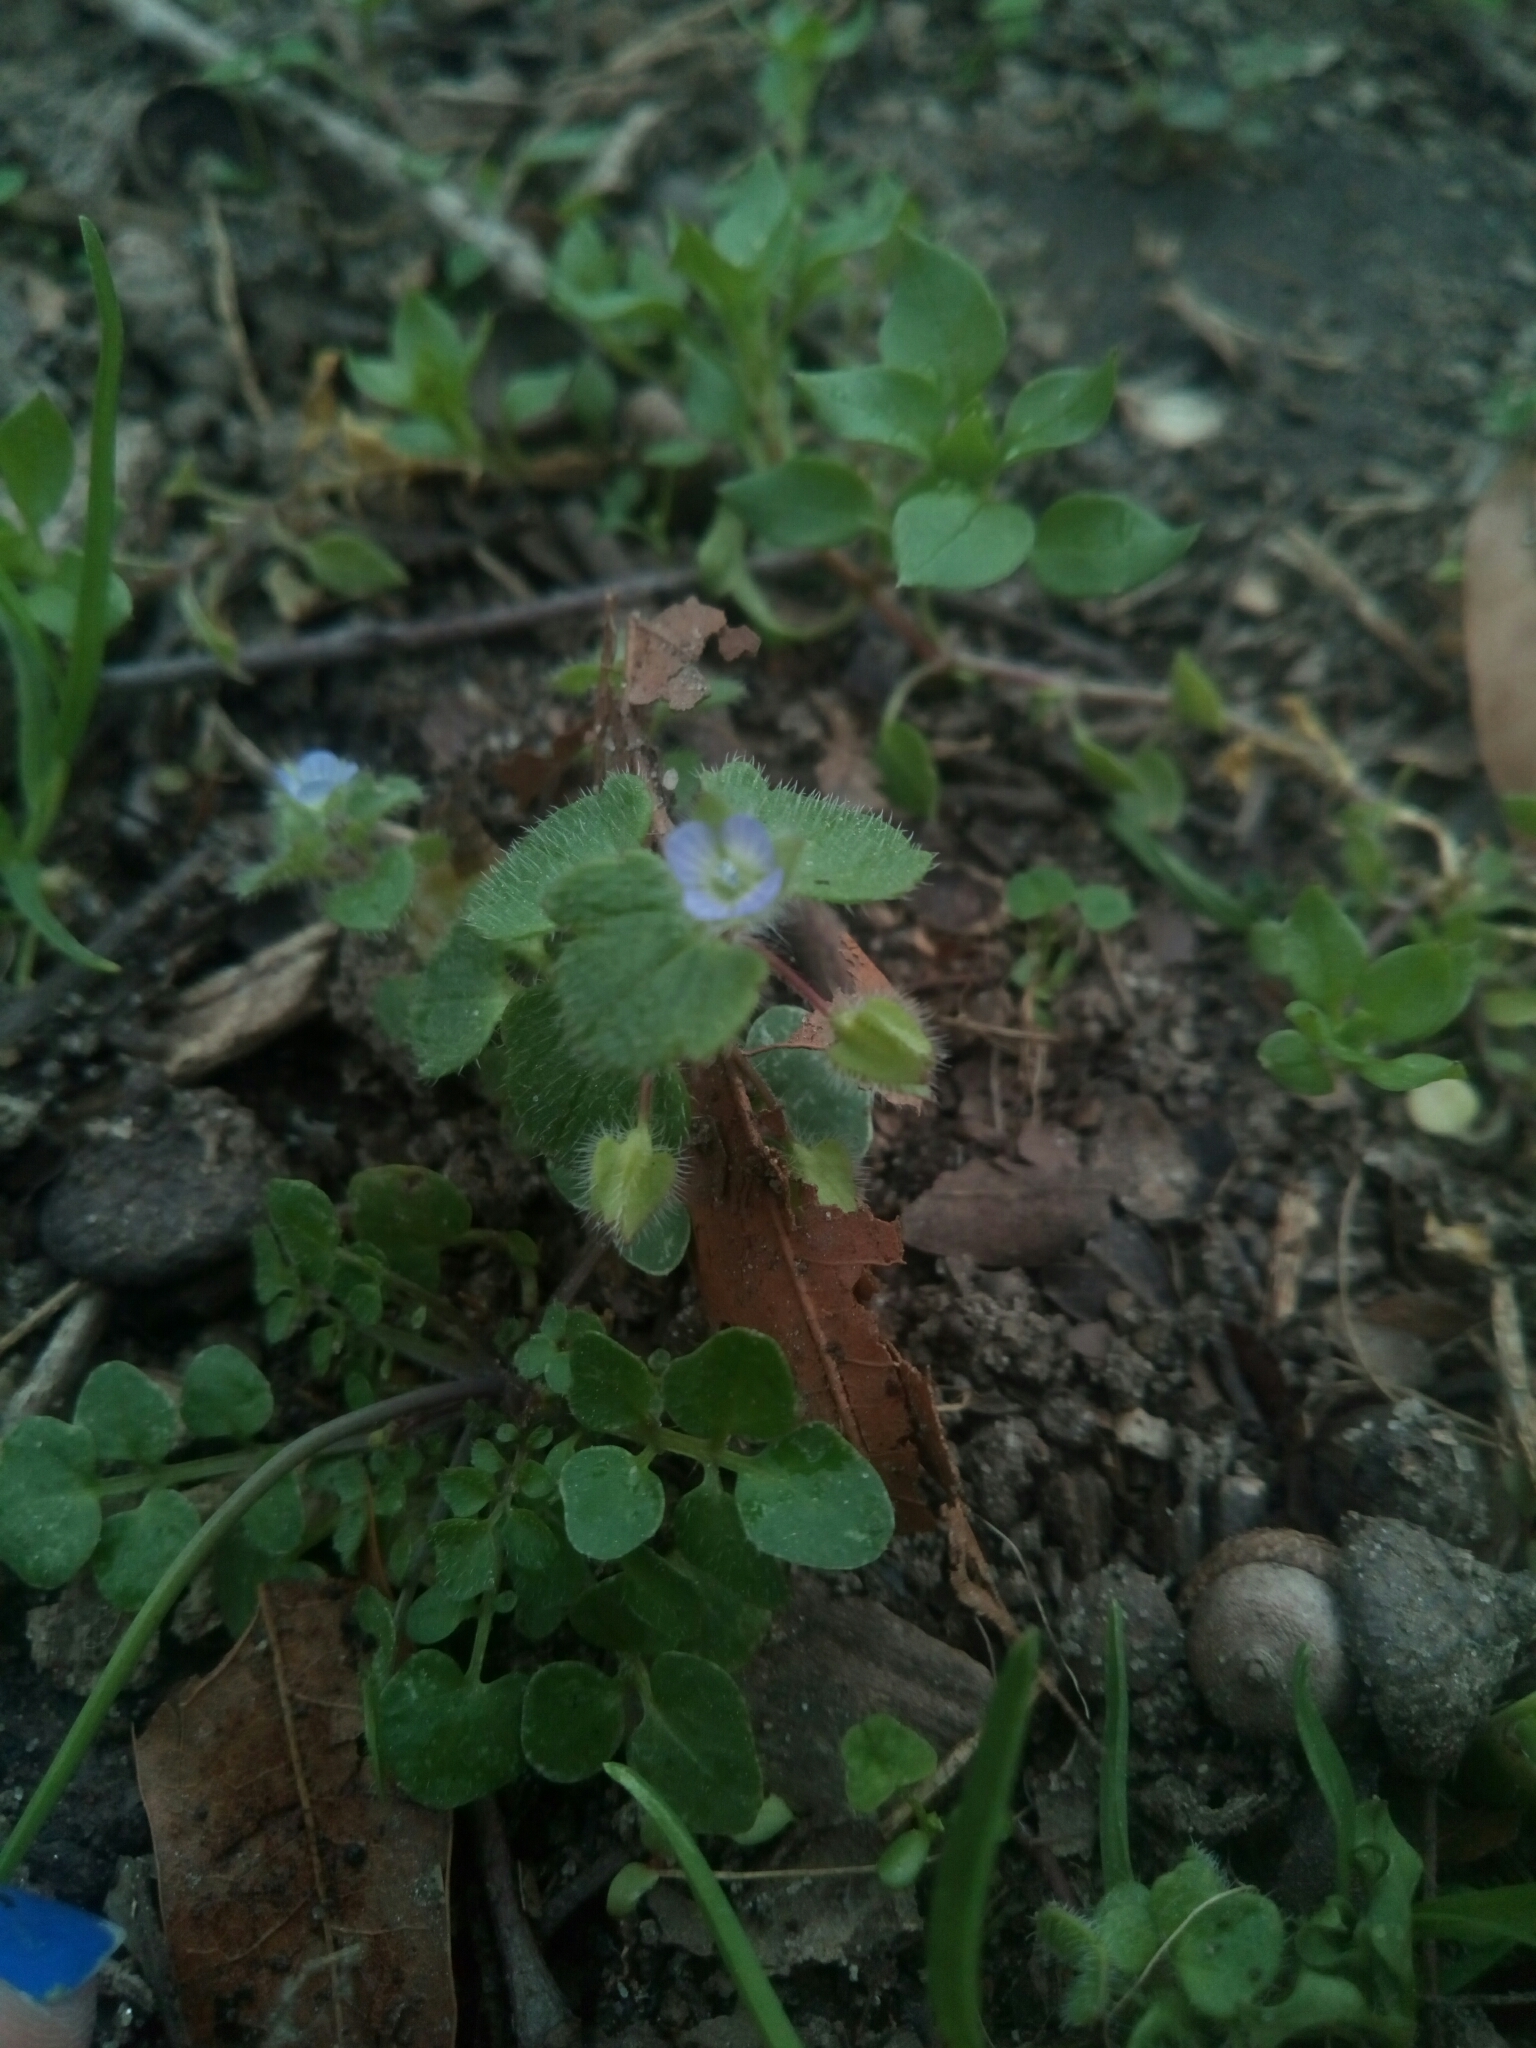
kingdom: Plantae
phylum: Tracheophyta
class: Magnoliopsida
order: Lamiales
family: Plantaginaceae
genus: Veronica
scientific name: Veronica hederifolia
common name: Ivy-leaved speedwell
